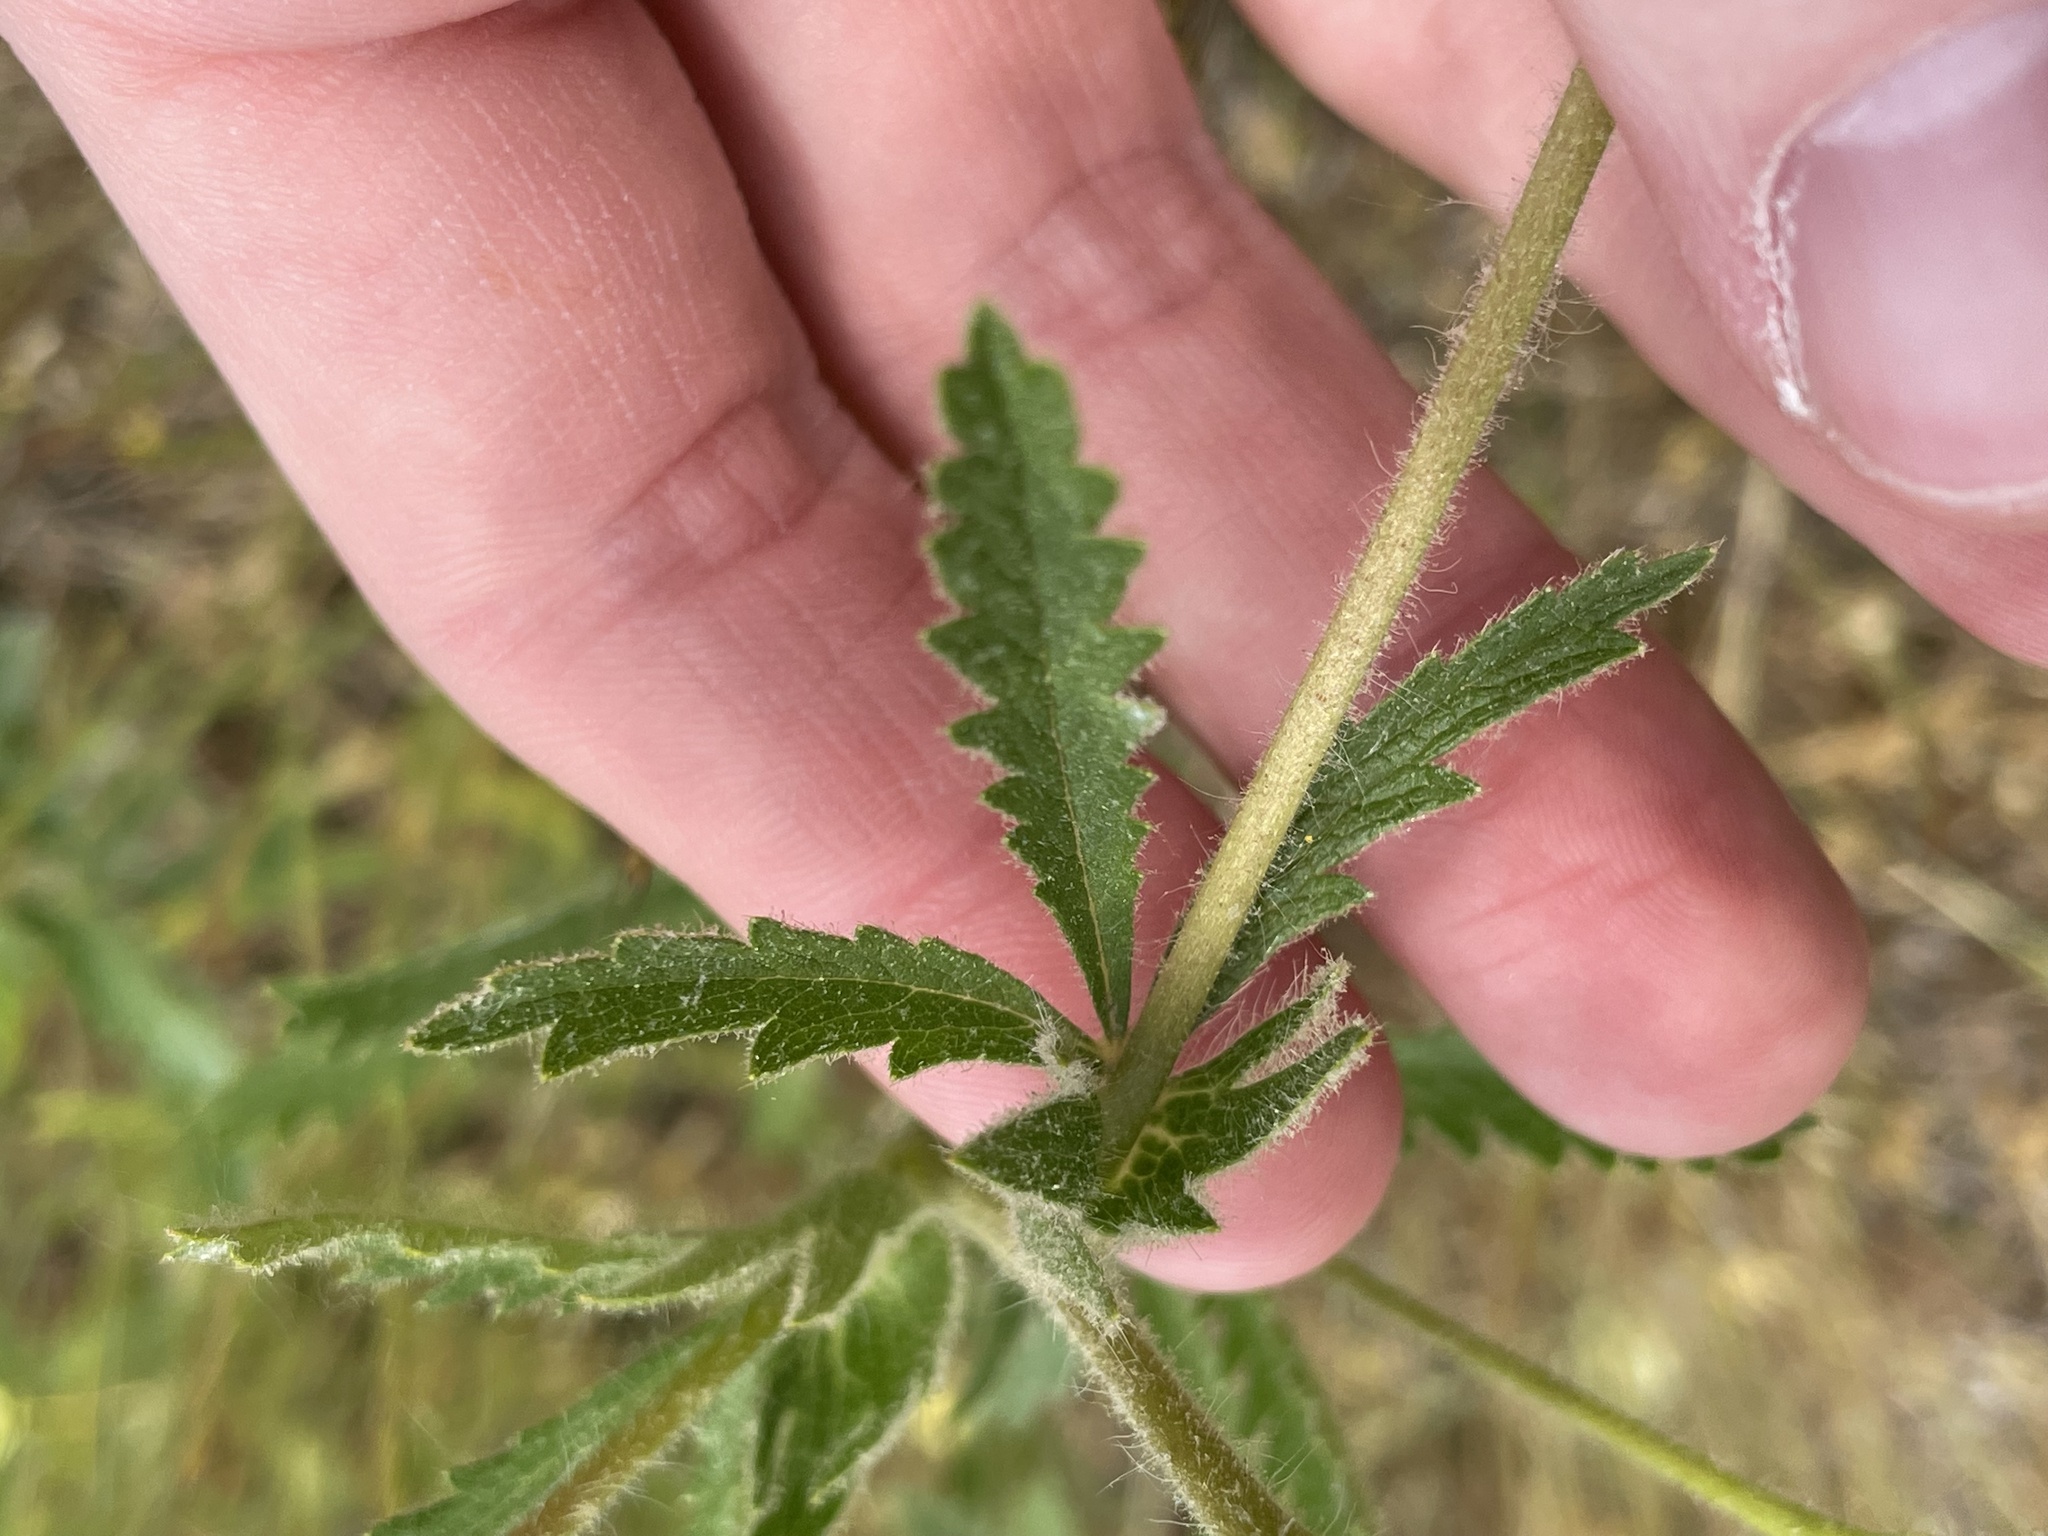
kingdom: Plantae
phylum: Tracheophyta
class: Magnoliopsida
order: Rosales
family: Rosaceae
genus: Potentilla
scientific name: Potentilla recta
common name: Sulphur cinquefoil
